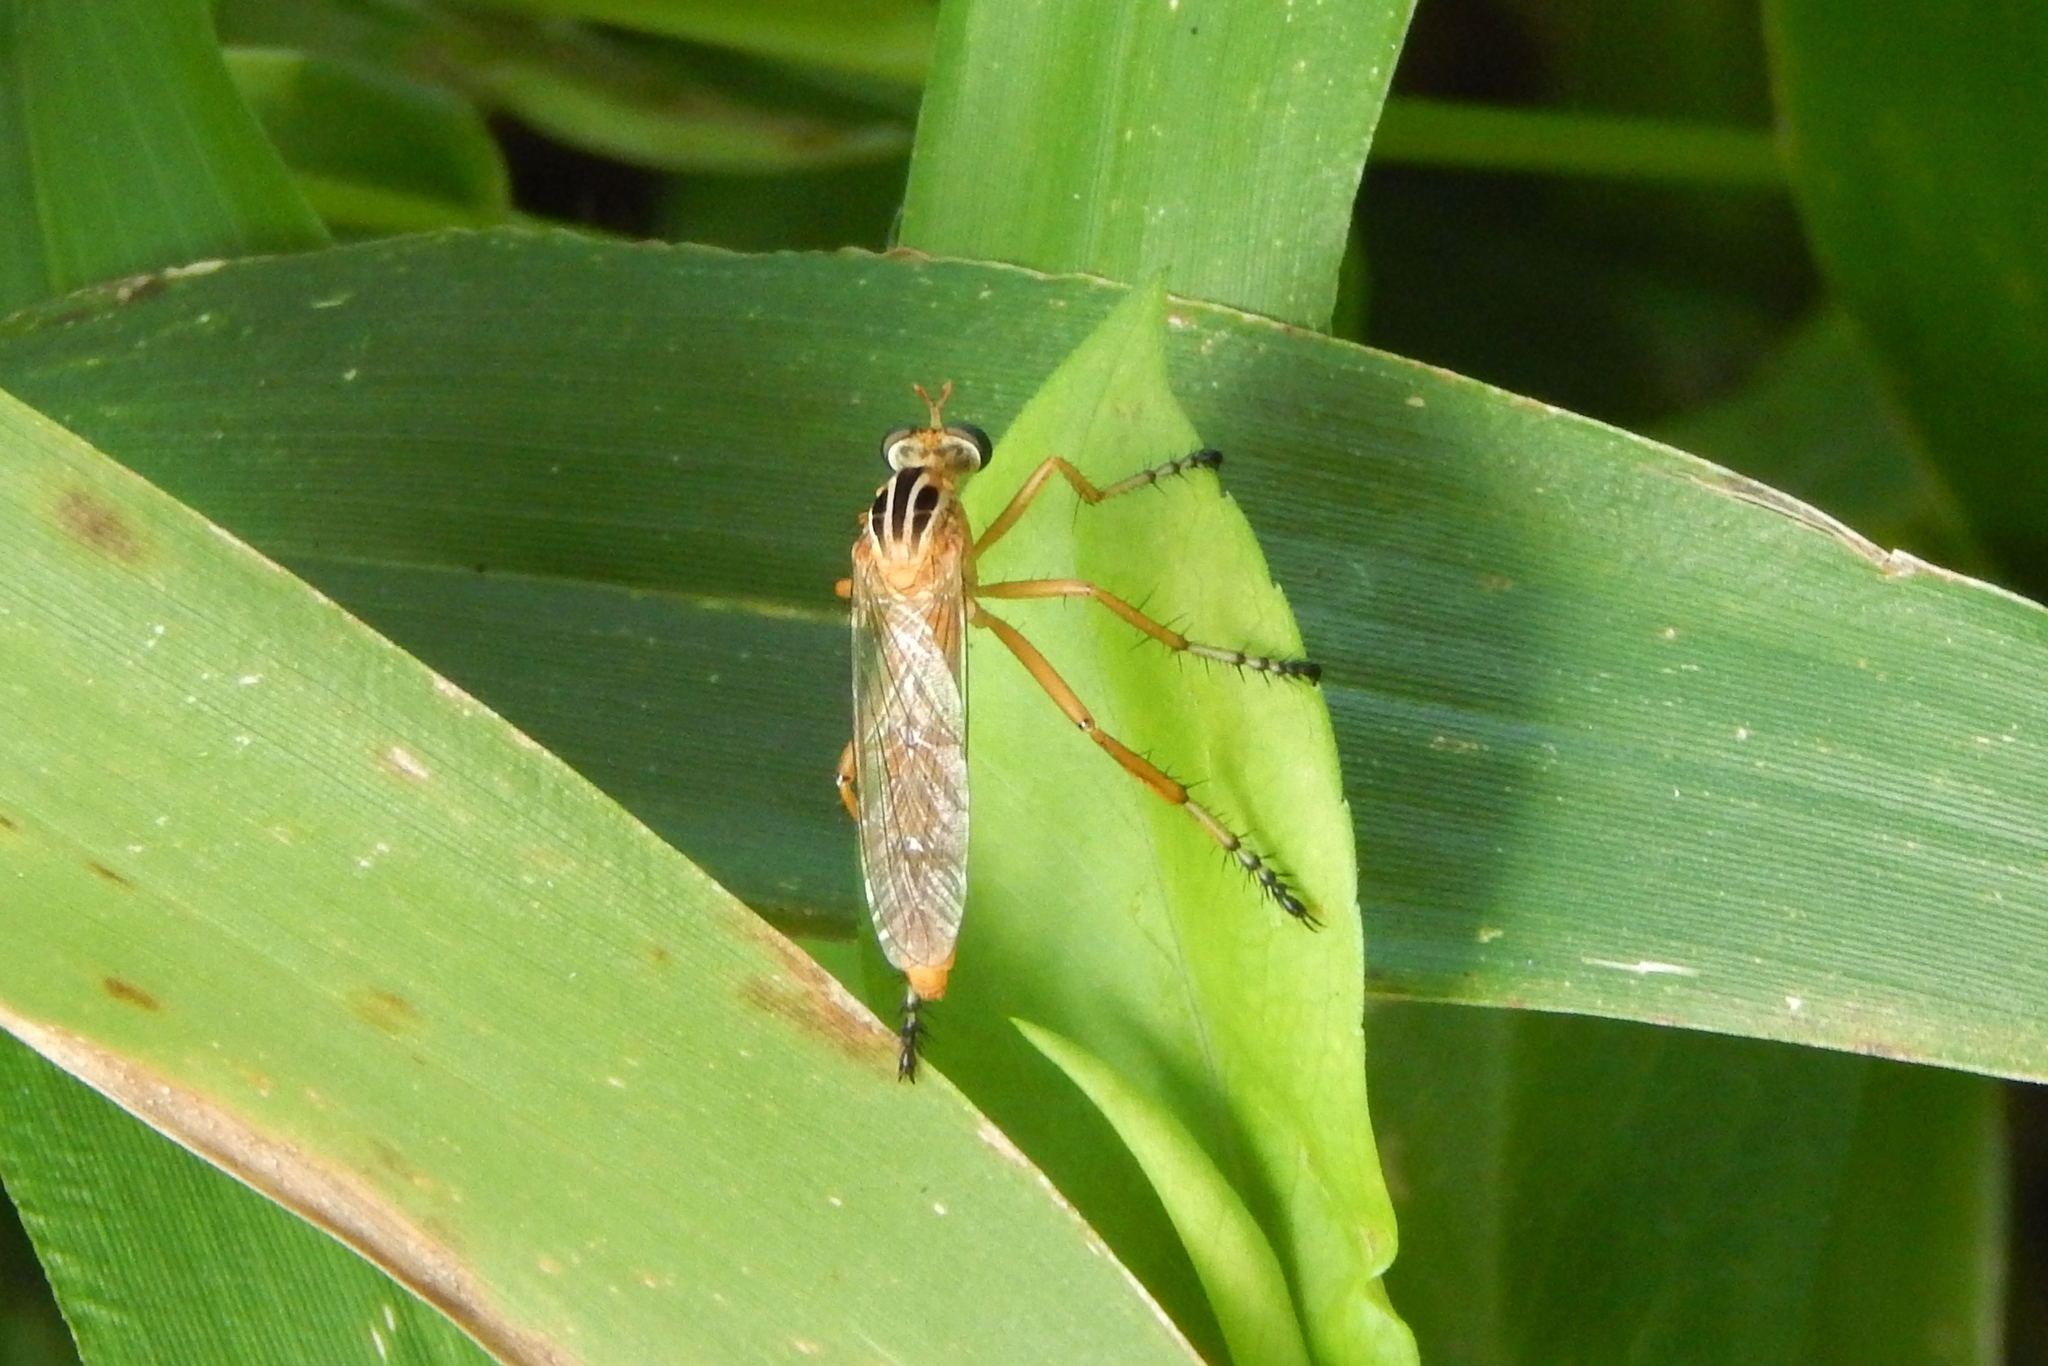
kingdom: Animalia
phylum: Arthropoda
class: Insecta
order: Diptera
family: Asilidae
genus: Diogmites
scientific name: Diogmites
